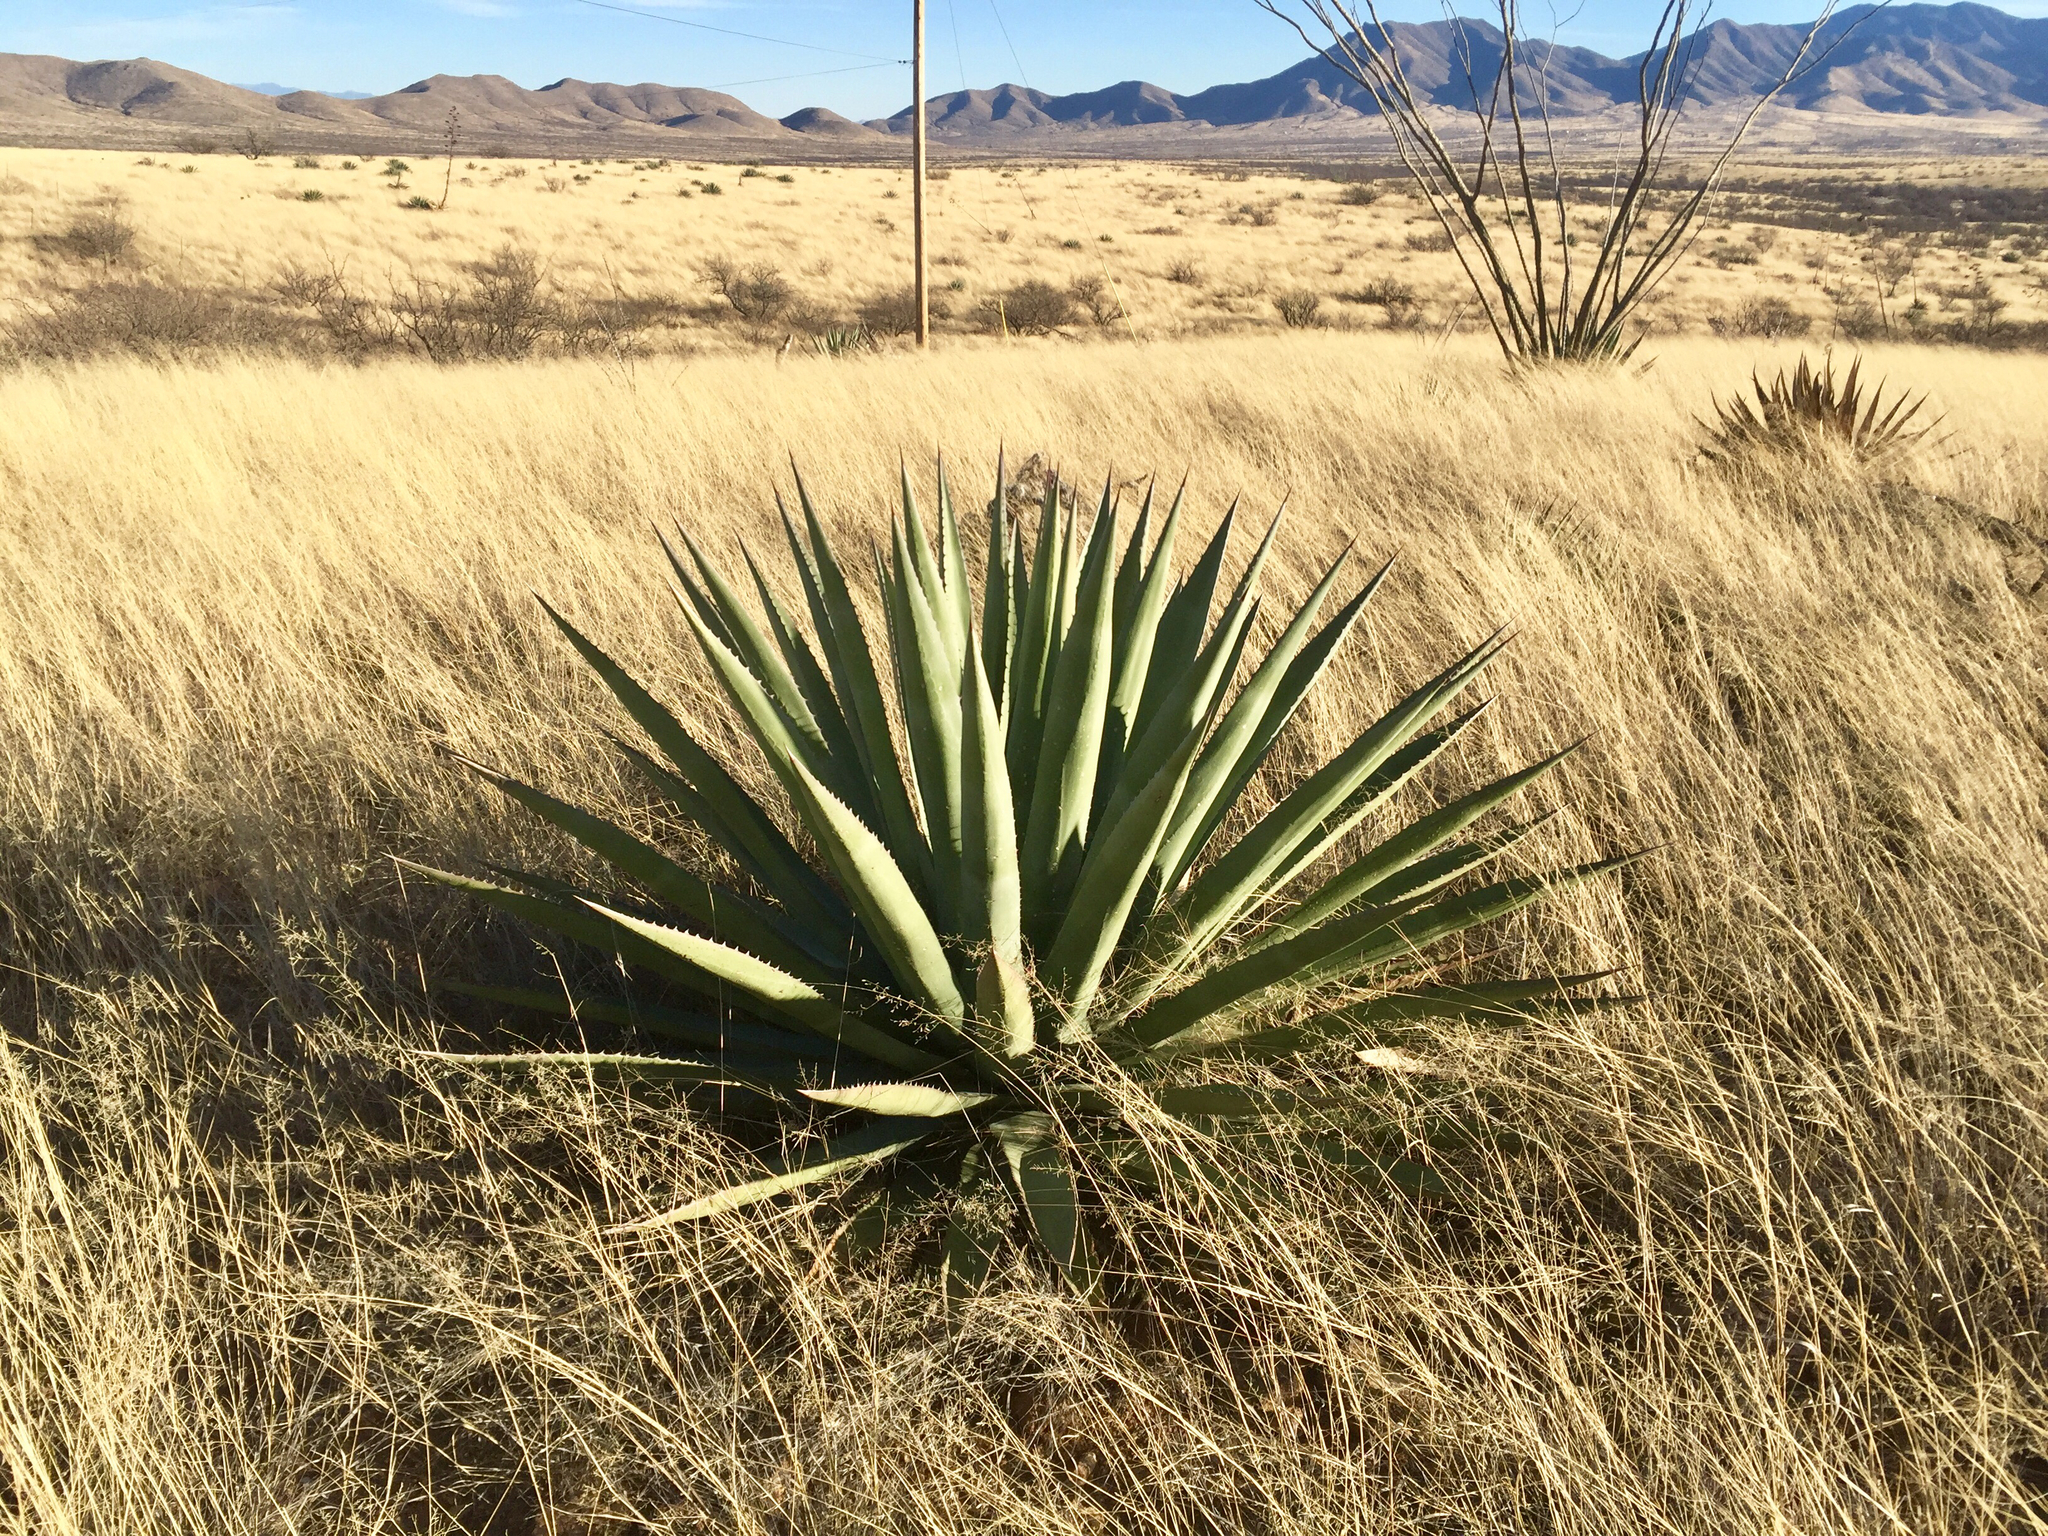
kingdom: Plantae
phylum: Tracheophyta
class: Liliopsida
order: Asparagales
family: Asparagaceae
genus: Agave
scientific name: Agave palmeri
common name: Palmer agave
